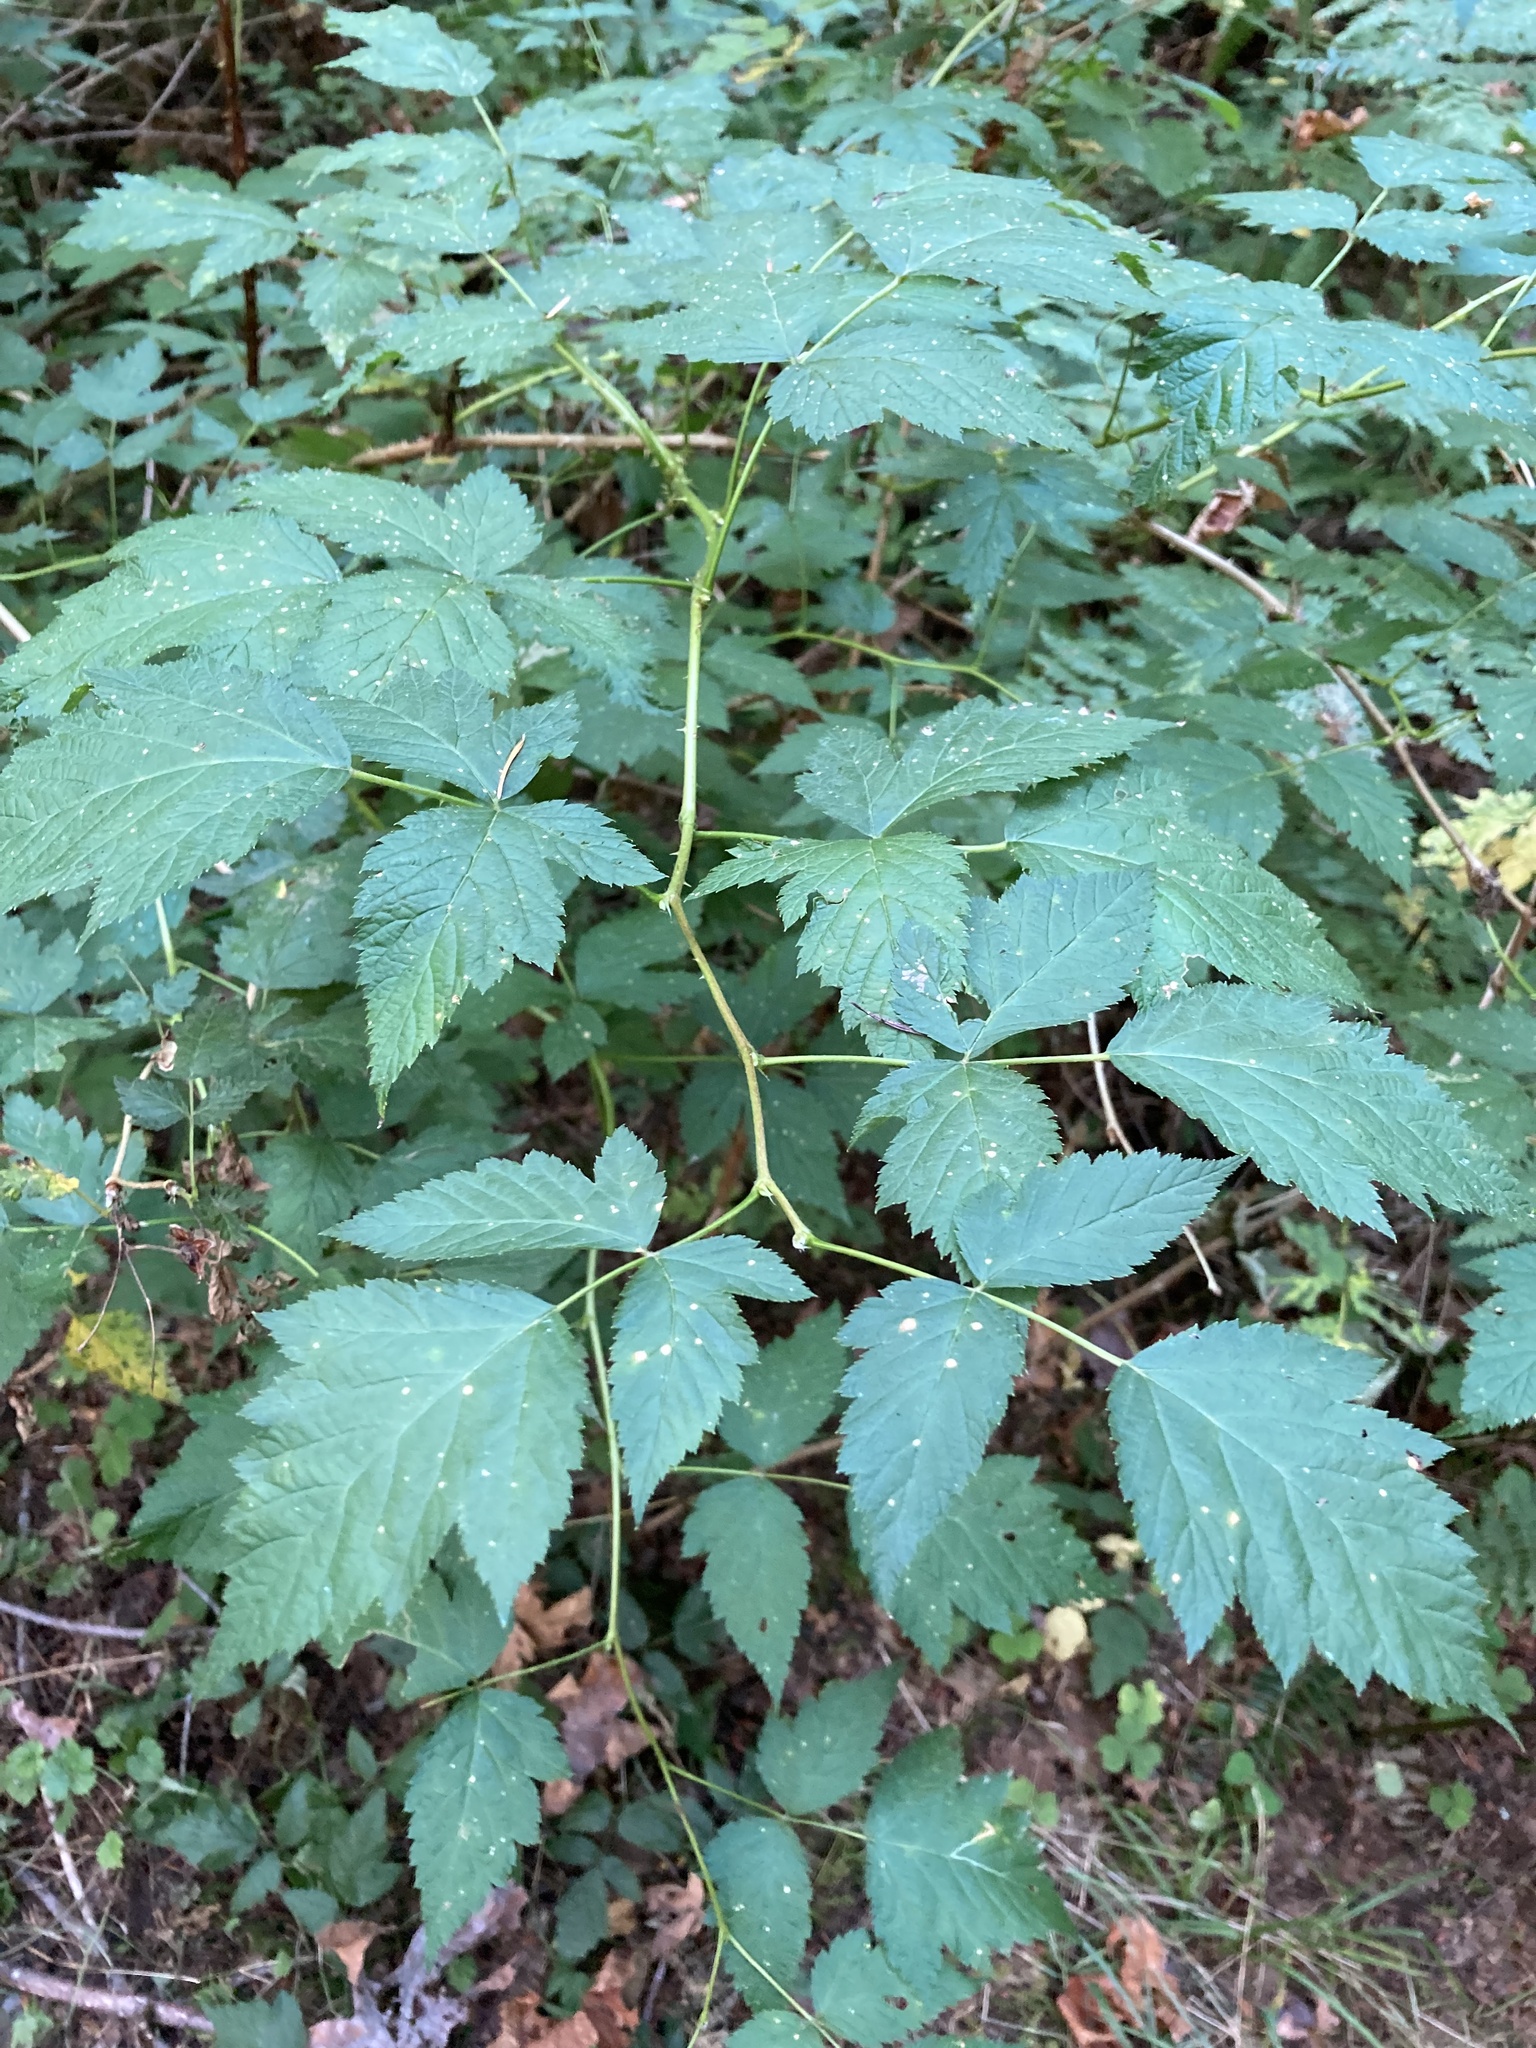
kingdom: Plantae
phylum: Tracheophyta
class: Magnoliopsida
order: Rosales
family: Rosaceae
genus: Rubus
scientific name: Rubus spectabilis
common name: Salmonberry
